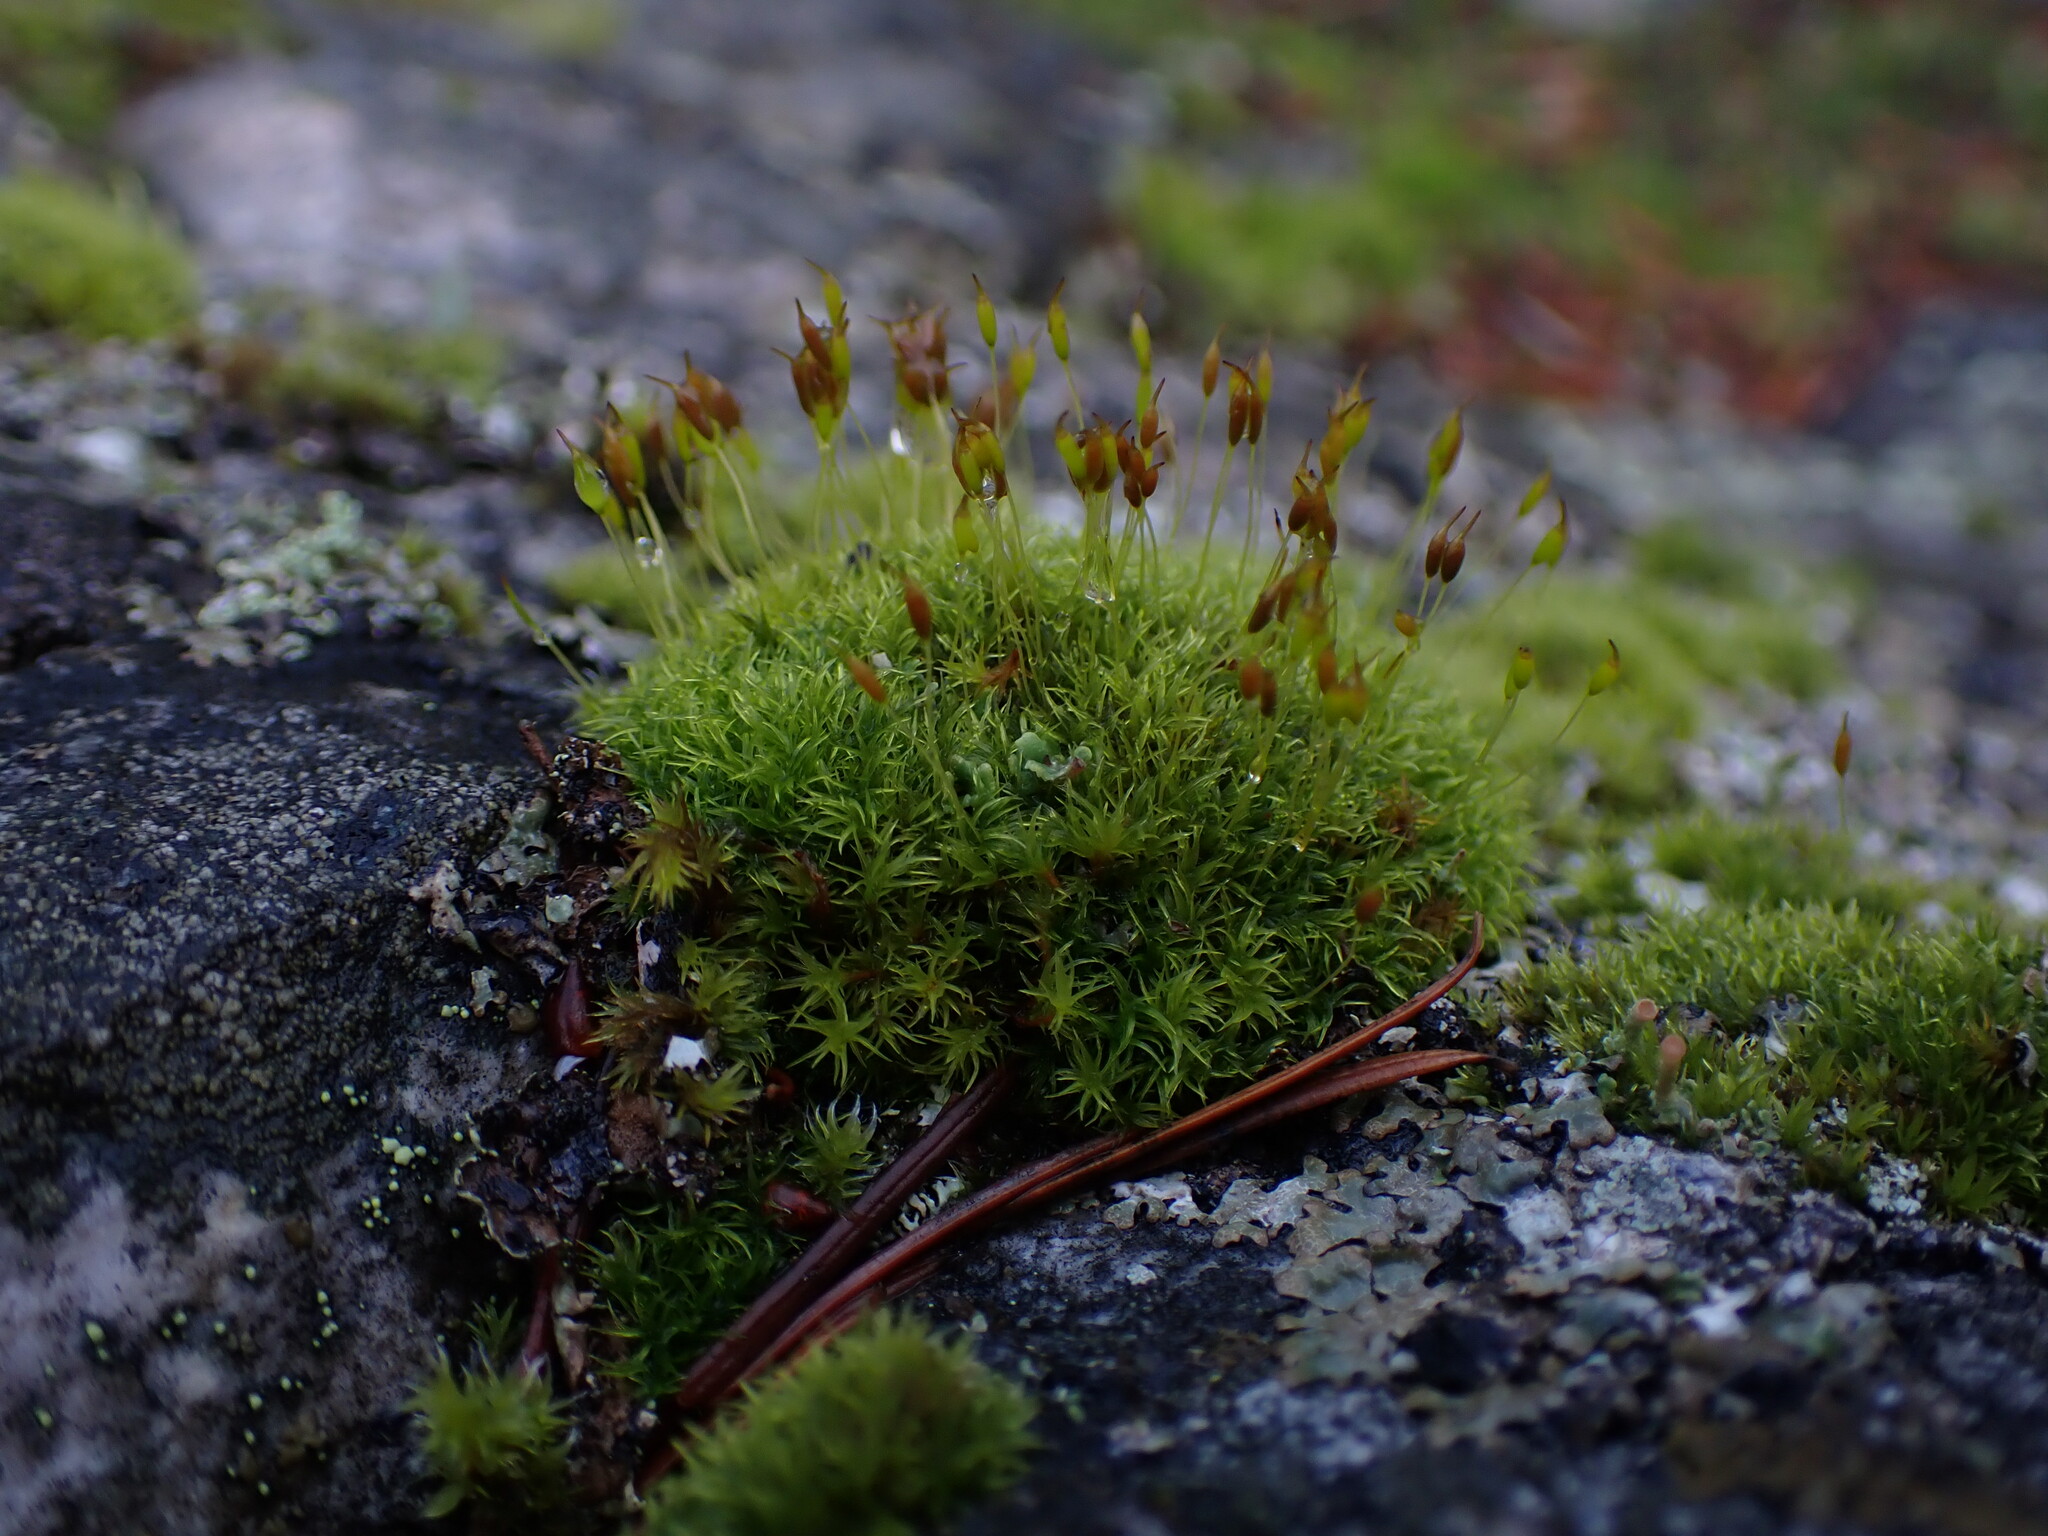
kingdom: Plantae
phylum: Bryophyta
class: Bryopsida
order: Scouleriales
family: Hymenolomataceae
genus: Hymenoloma
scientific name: Hymenoloma crispulum
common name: Mountain pincushion
